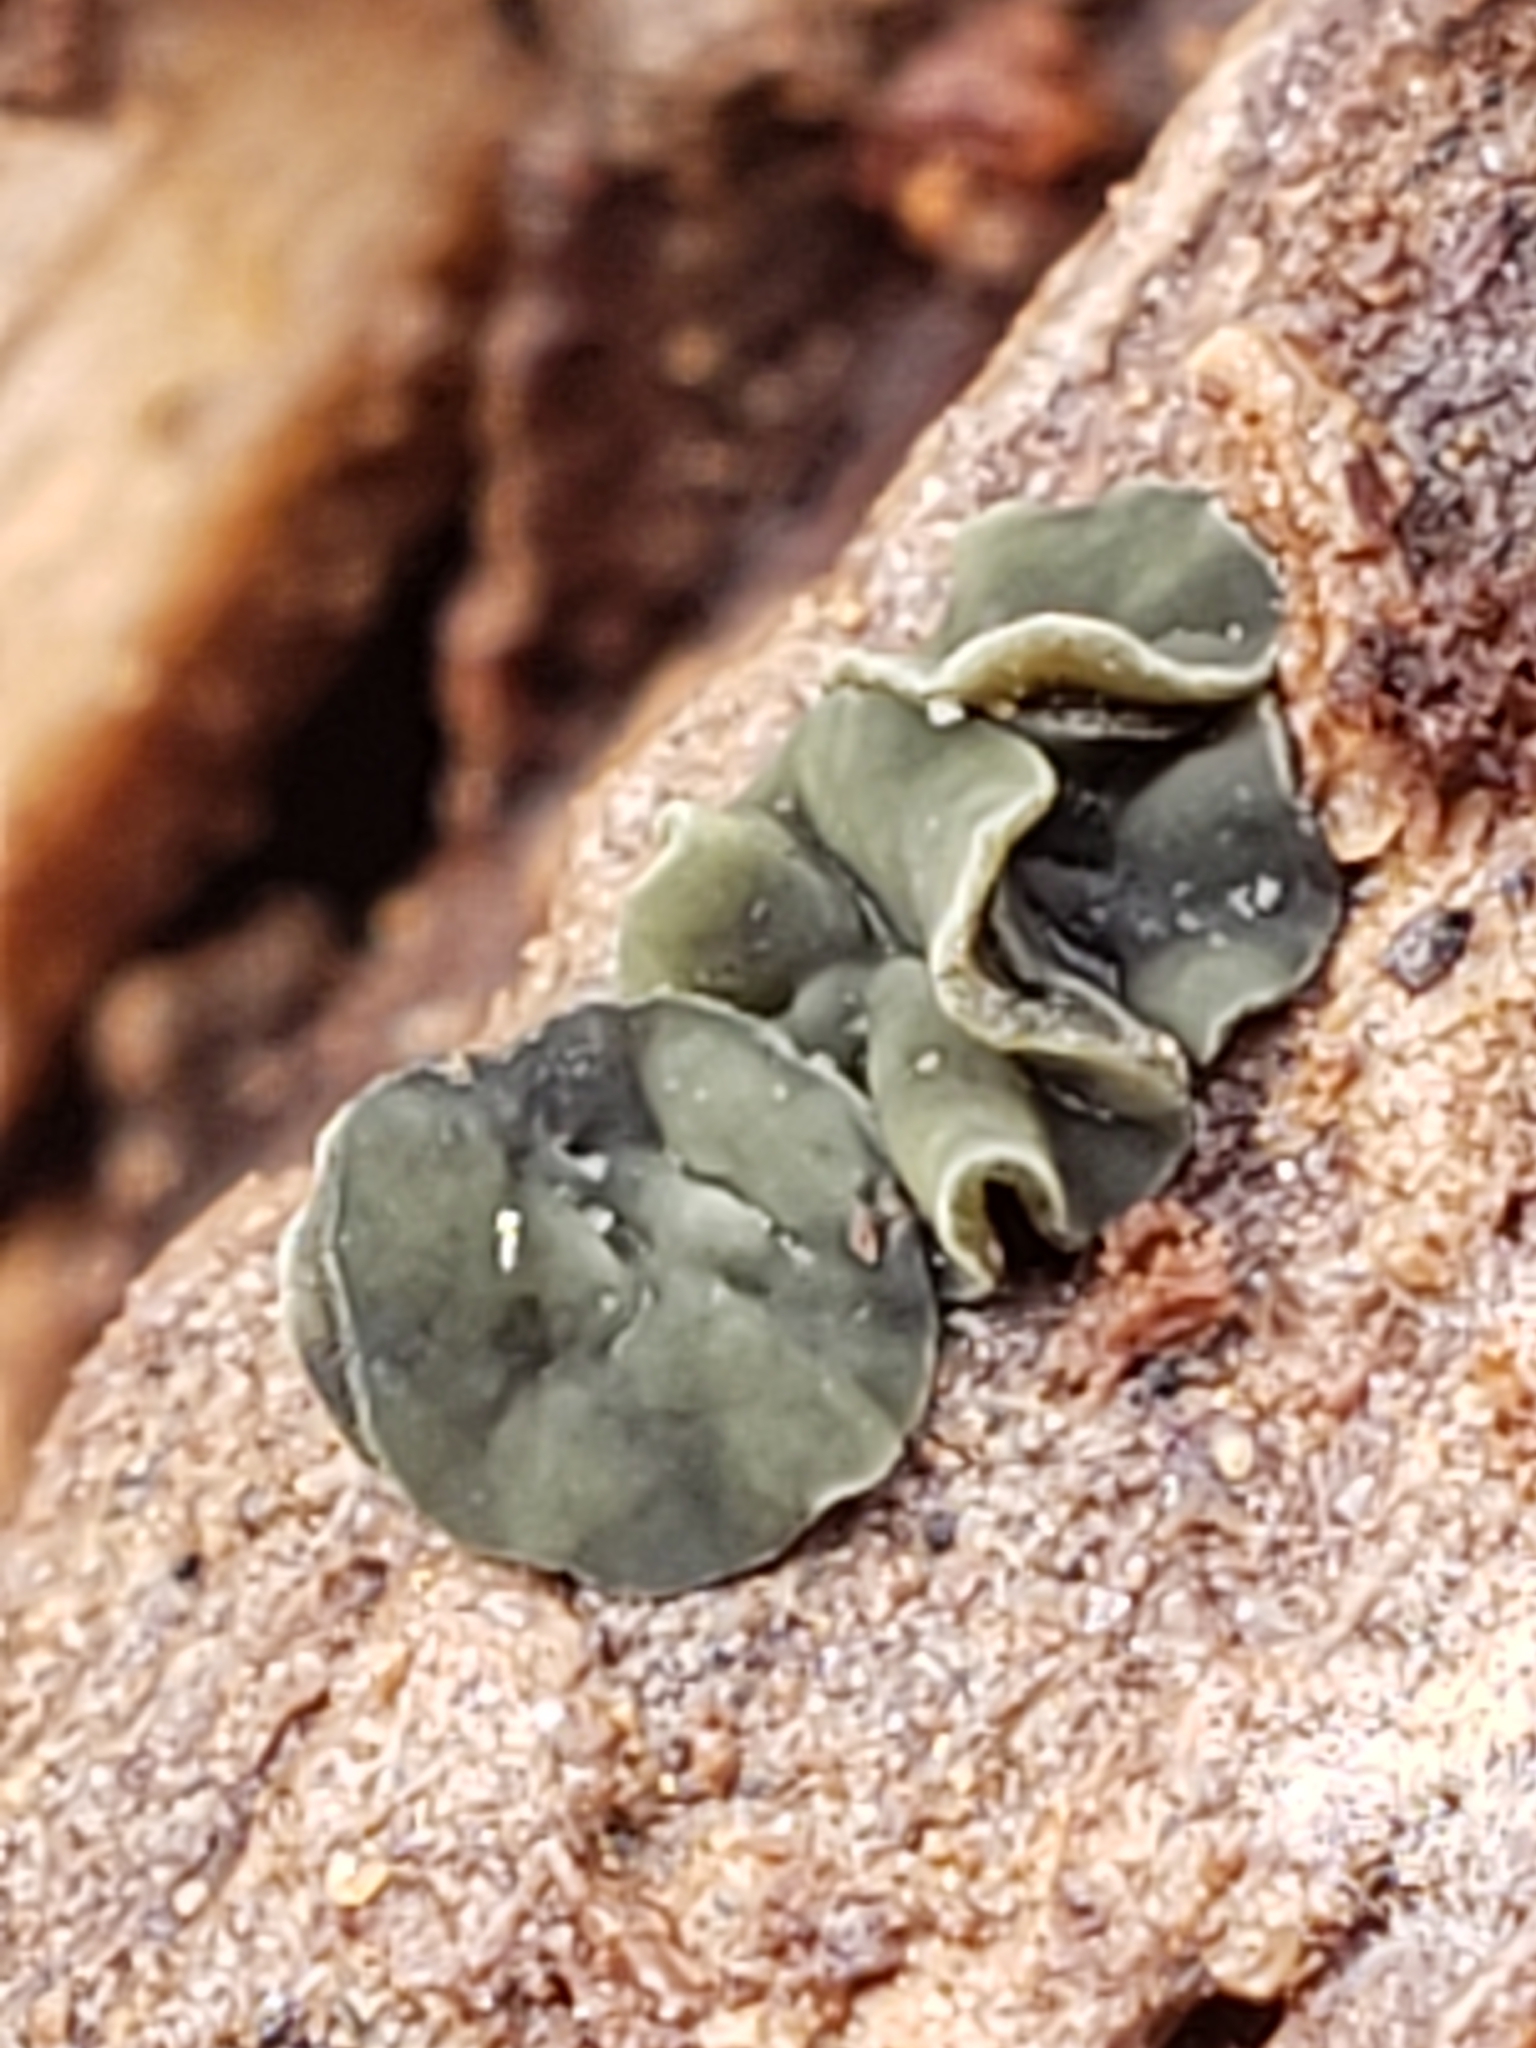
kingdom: Fungi
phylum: Ascomycota
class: Leotiomycetes
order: Helotiales
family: Chlorospleniaceae
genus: Chlorosplenium
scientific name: Chlorosplenium chlora
